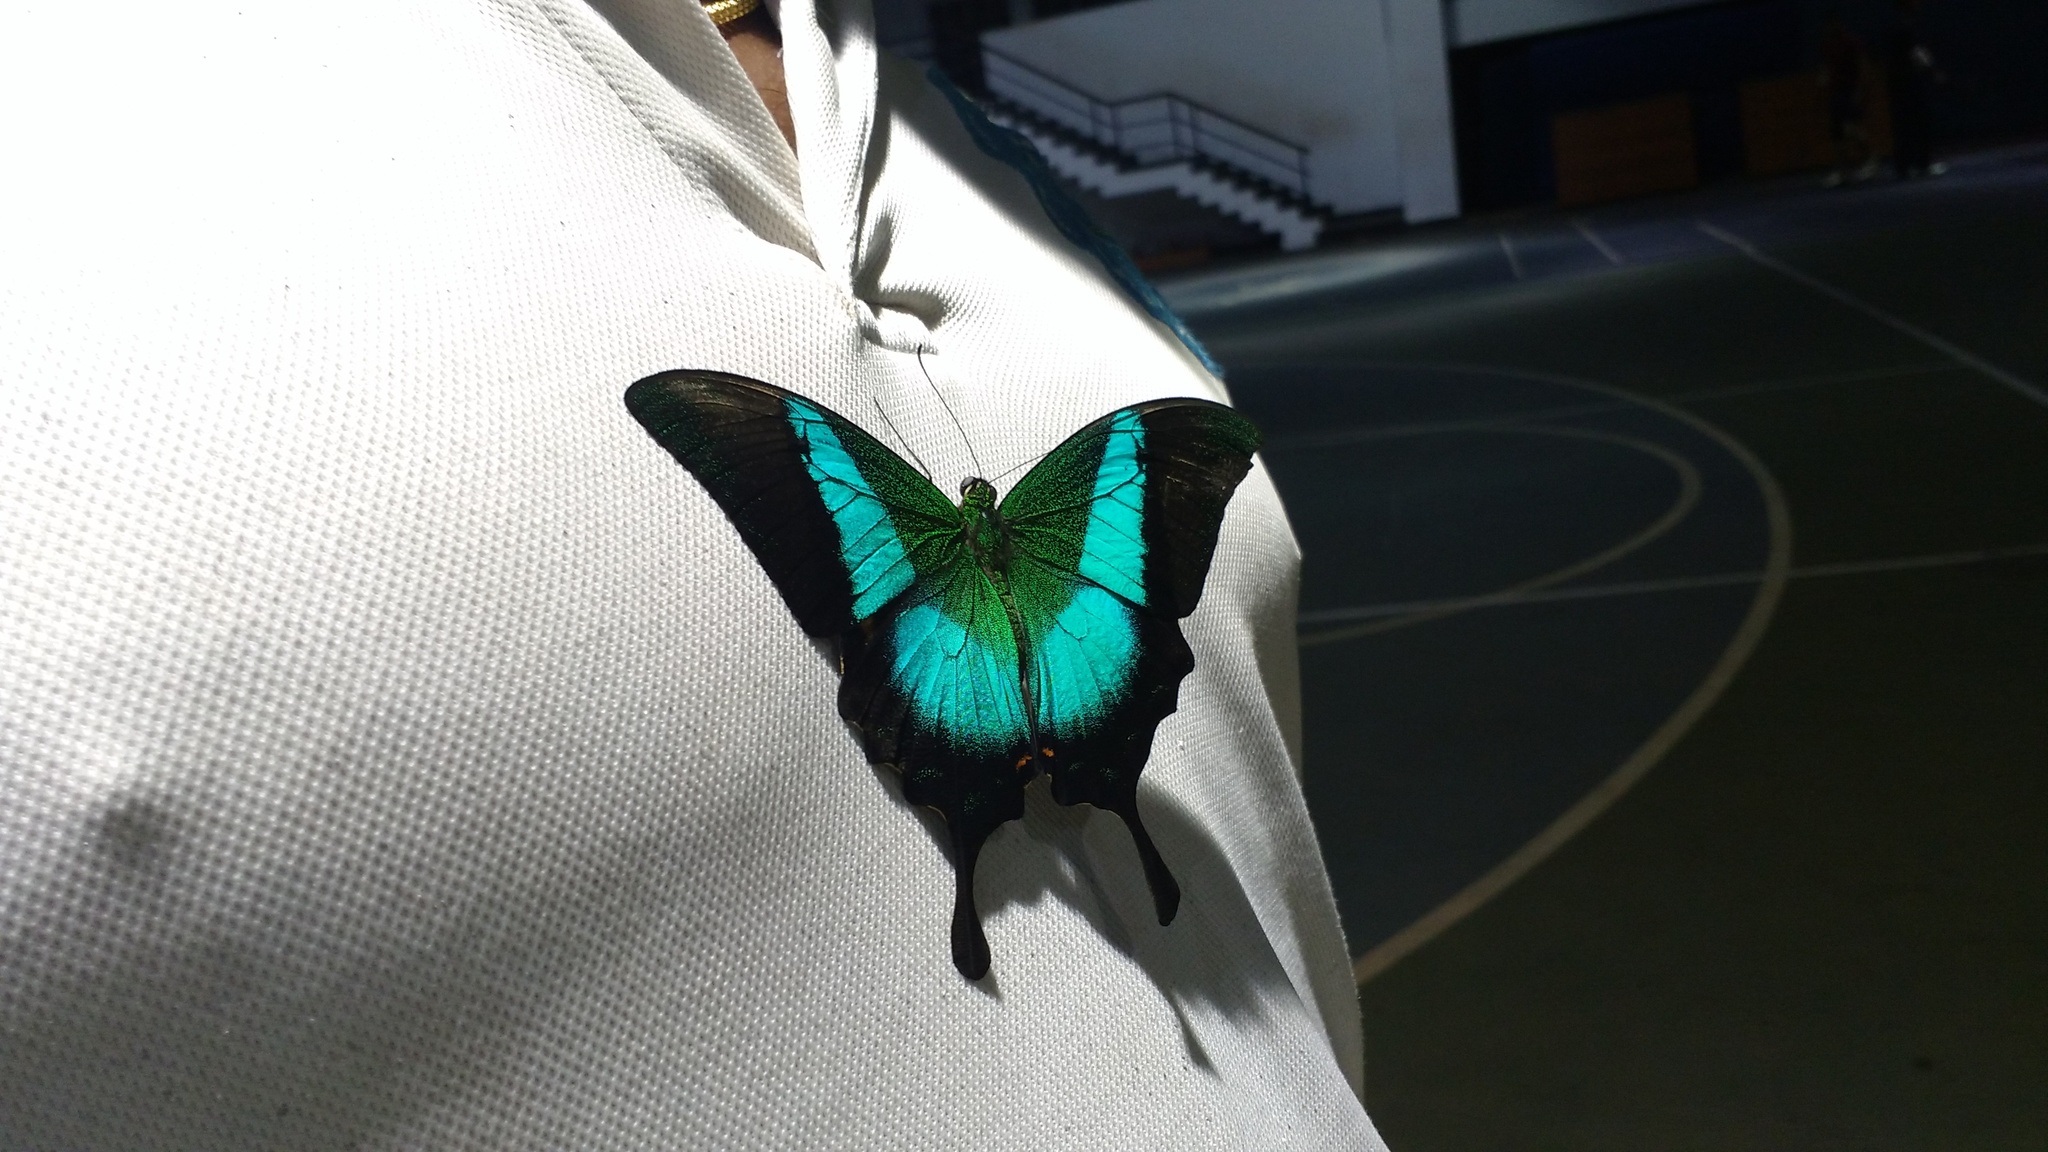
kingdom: Animalia
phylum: Arthropoda
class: Insecta
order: Lepidoptera
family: Papilionidae
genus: Papilio
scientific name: Papilio buddha
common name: Malabar banded peacock
